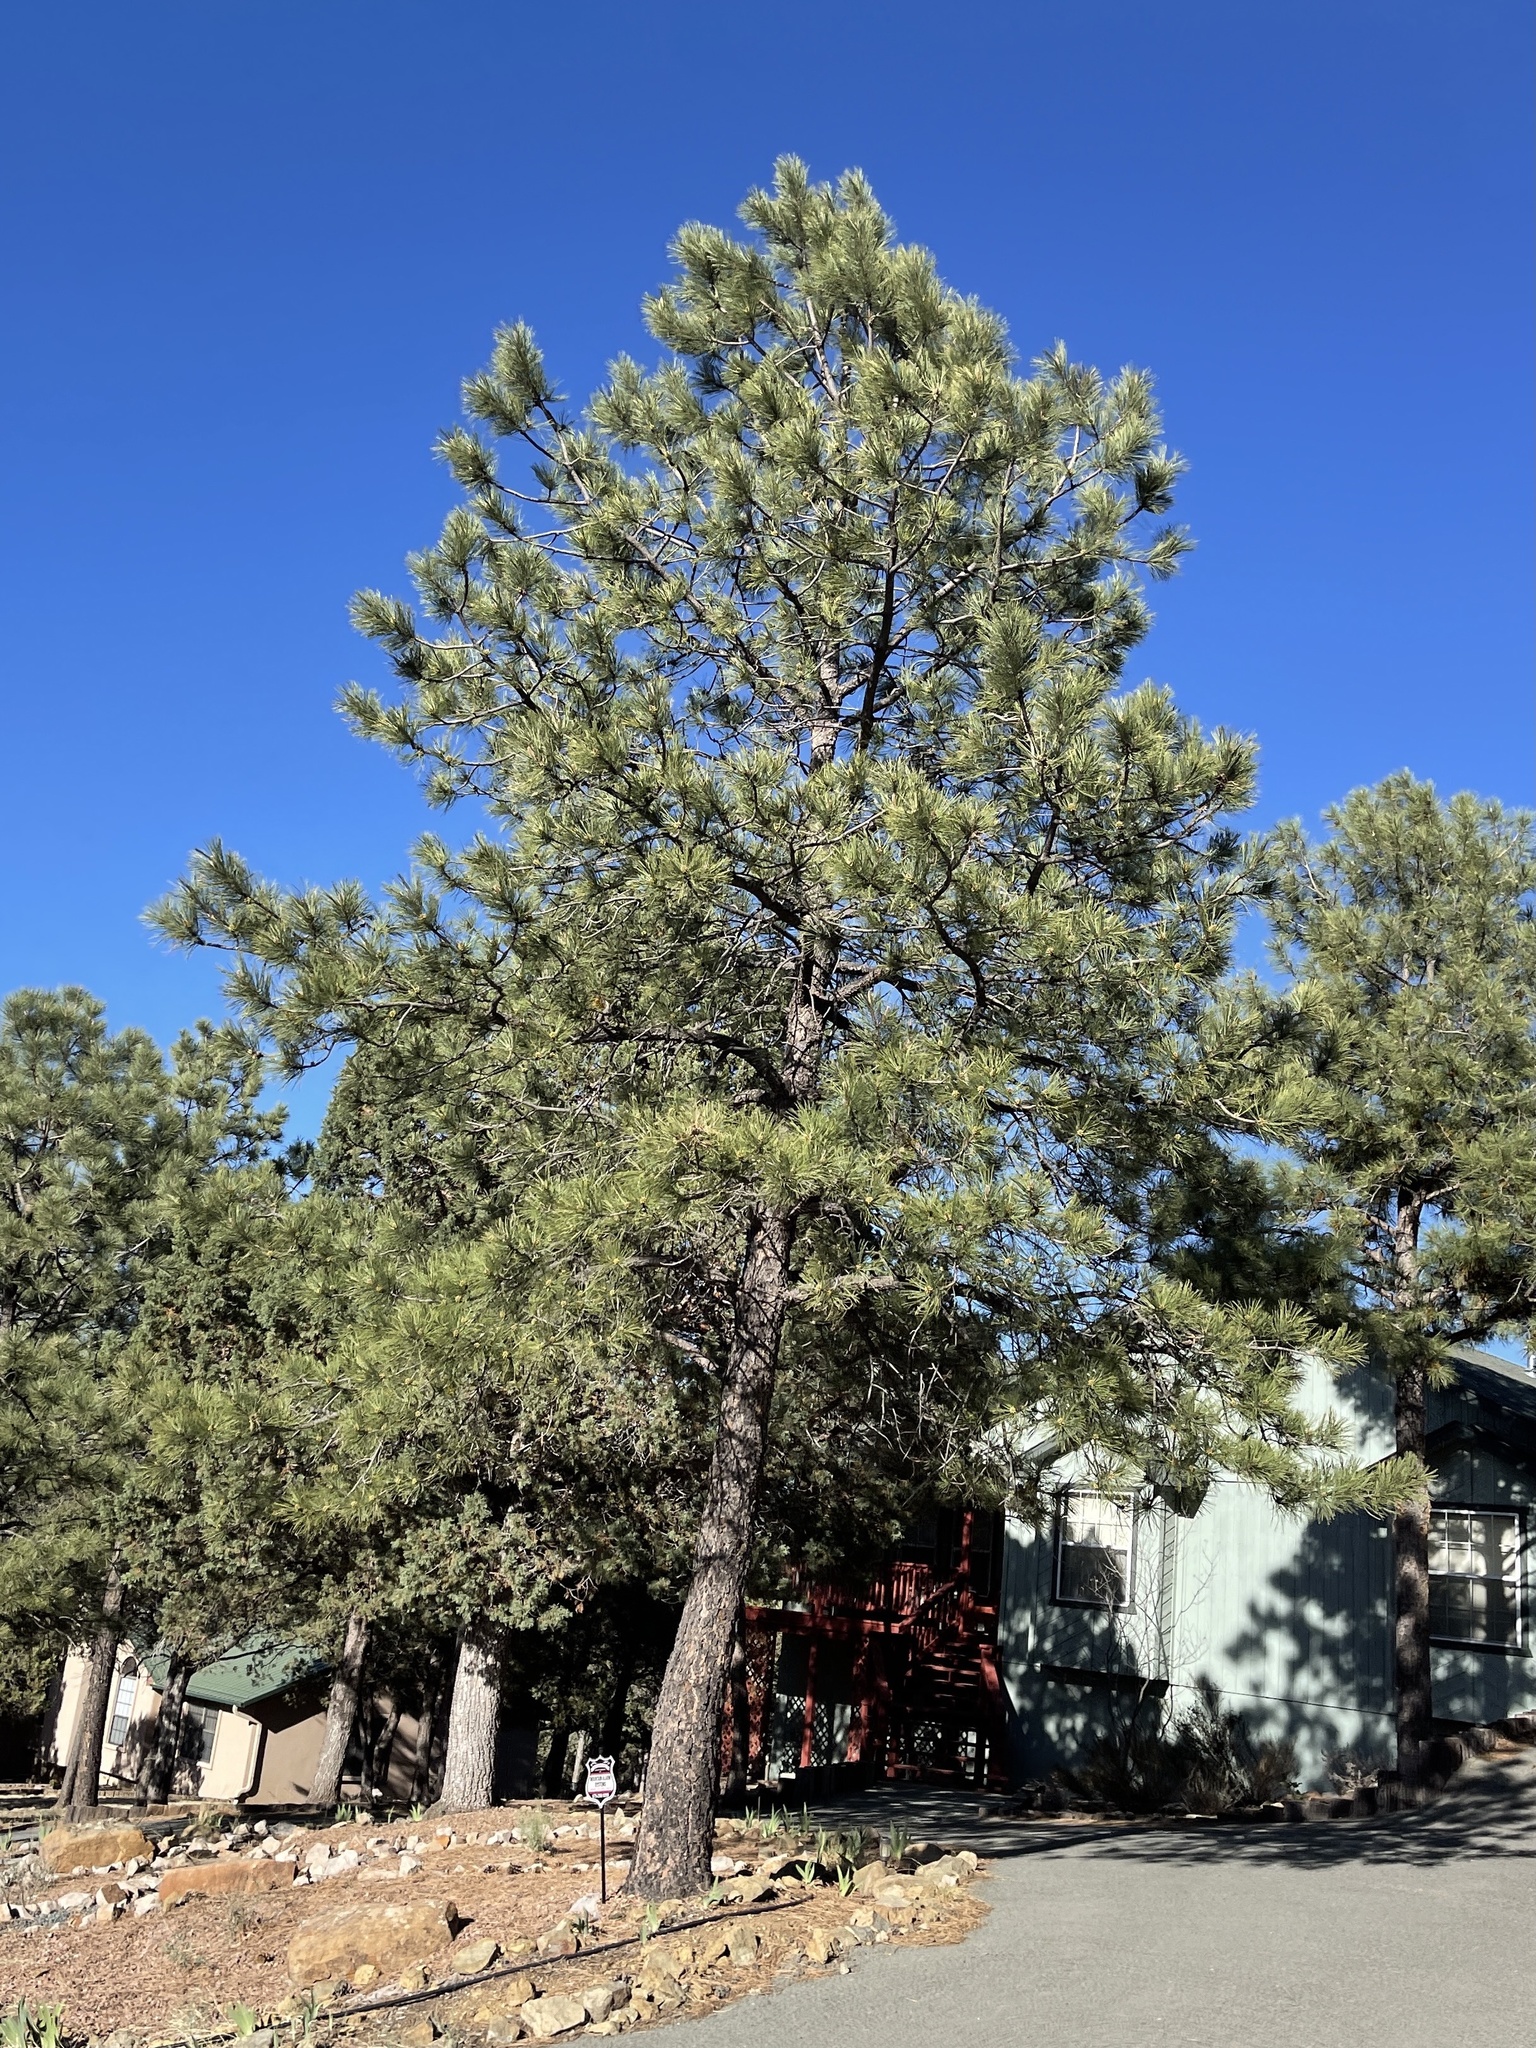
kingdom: Plantae
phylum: Tracheophyta
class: Pinopsida
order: Pinales
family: Pinaceae
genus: Pinus
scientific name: Pinus ponderosa
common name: Western yellow-pine
